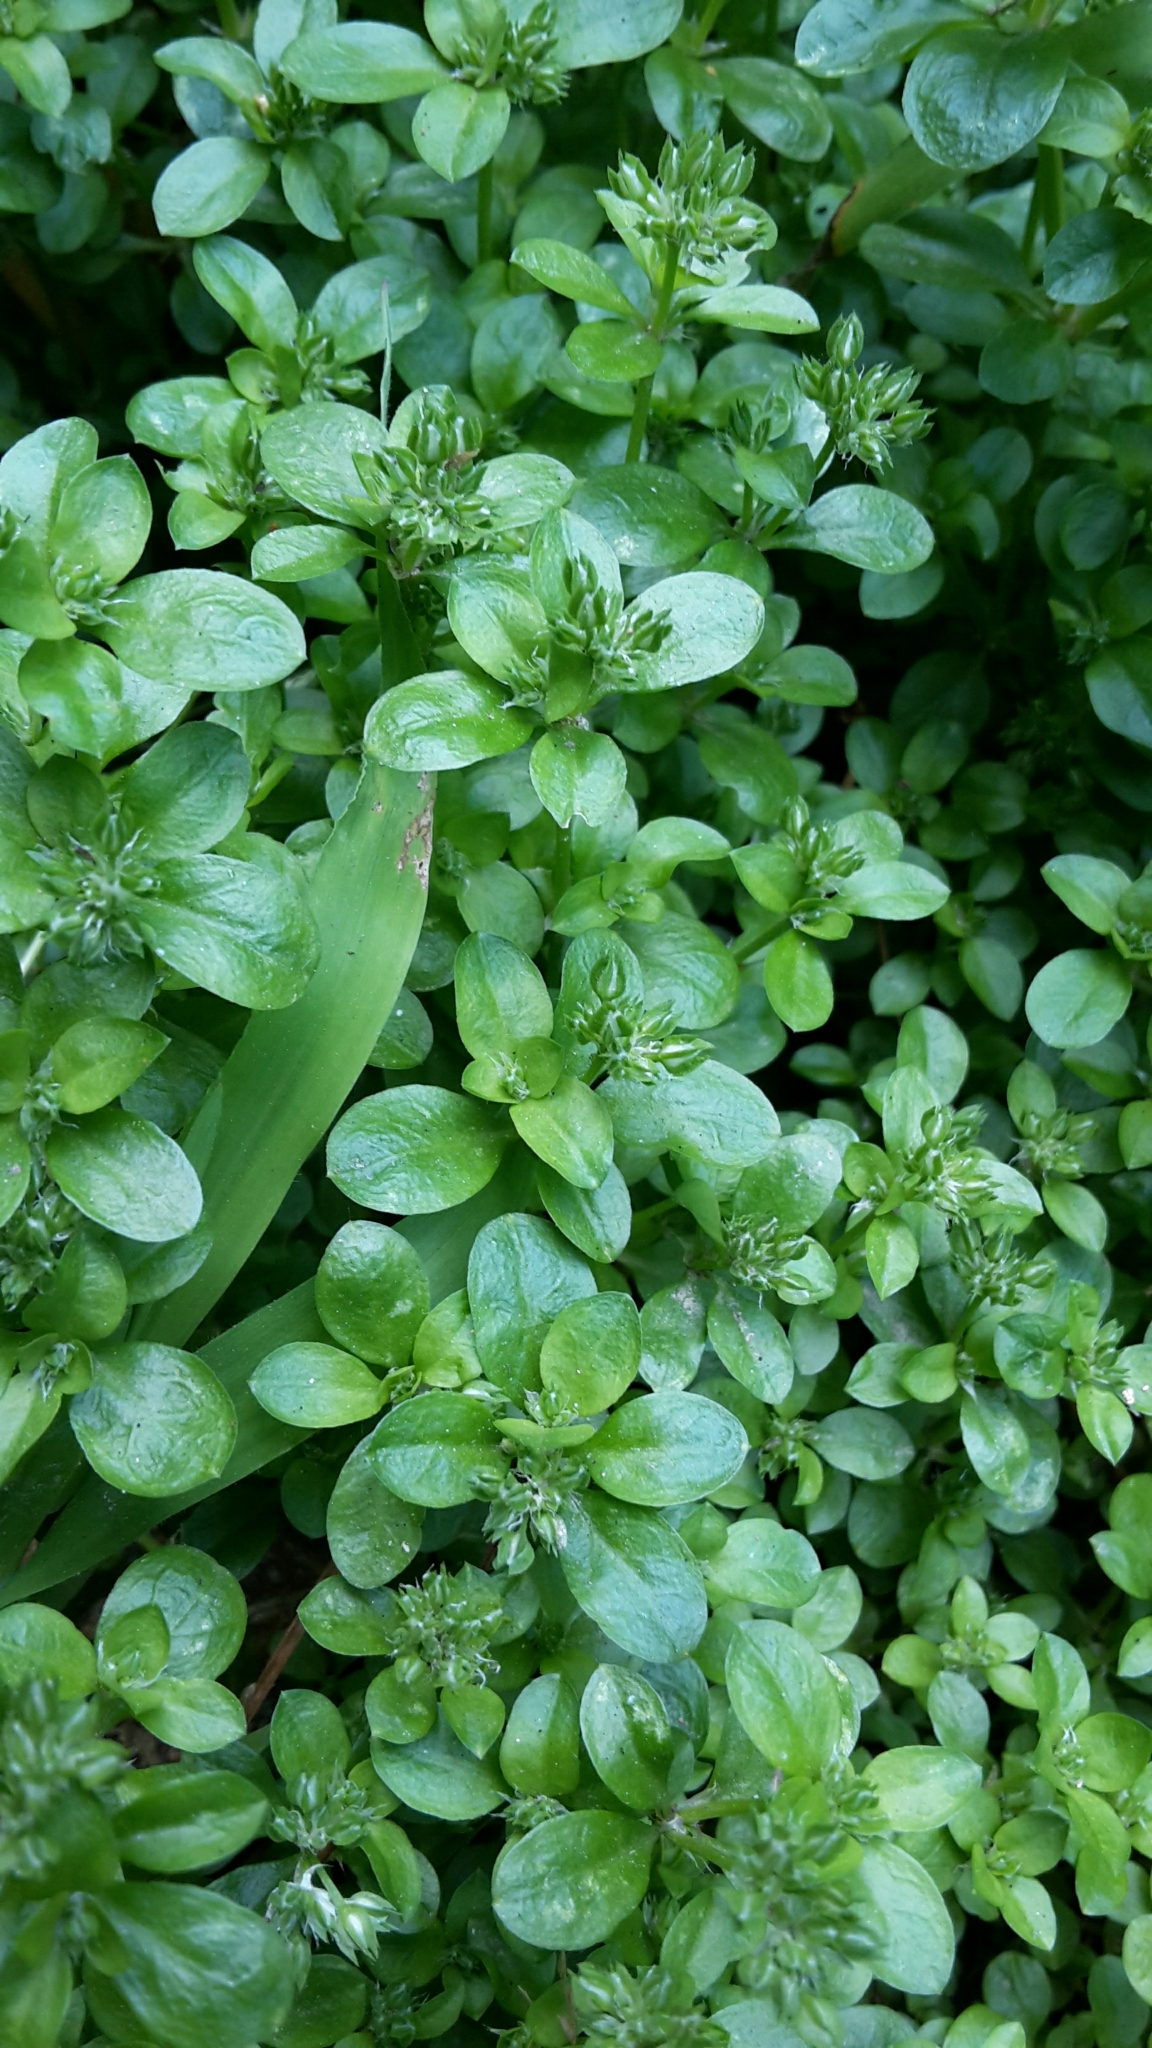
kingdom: Plantae
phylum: Tracheophyta
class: Magnoliopsida
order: Caryophyllales
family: Caryophyllaceae
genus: Polycarpon
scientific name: Polycarpon tetraphyllum
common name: Four-leaved all-seed
